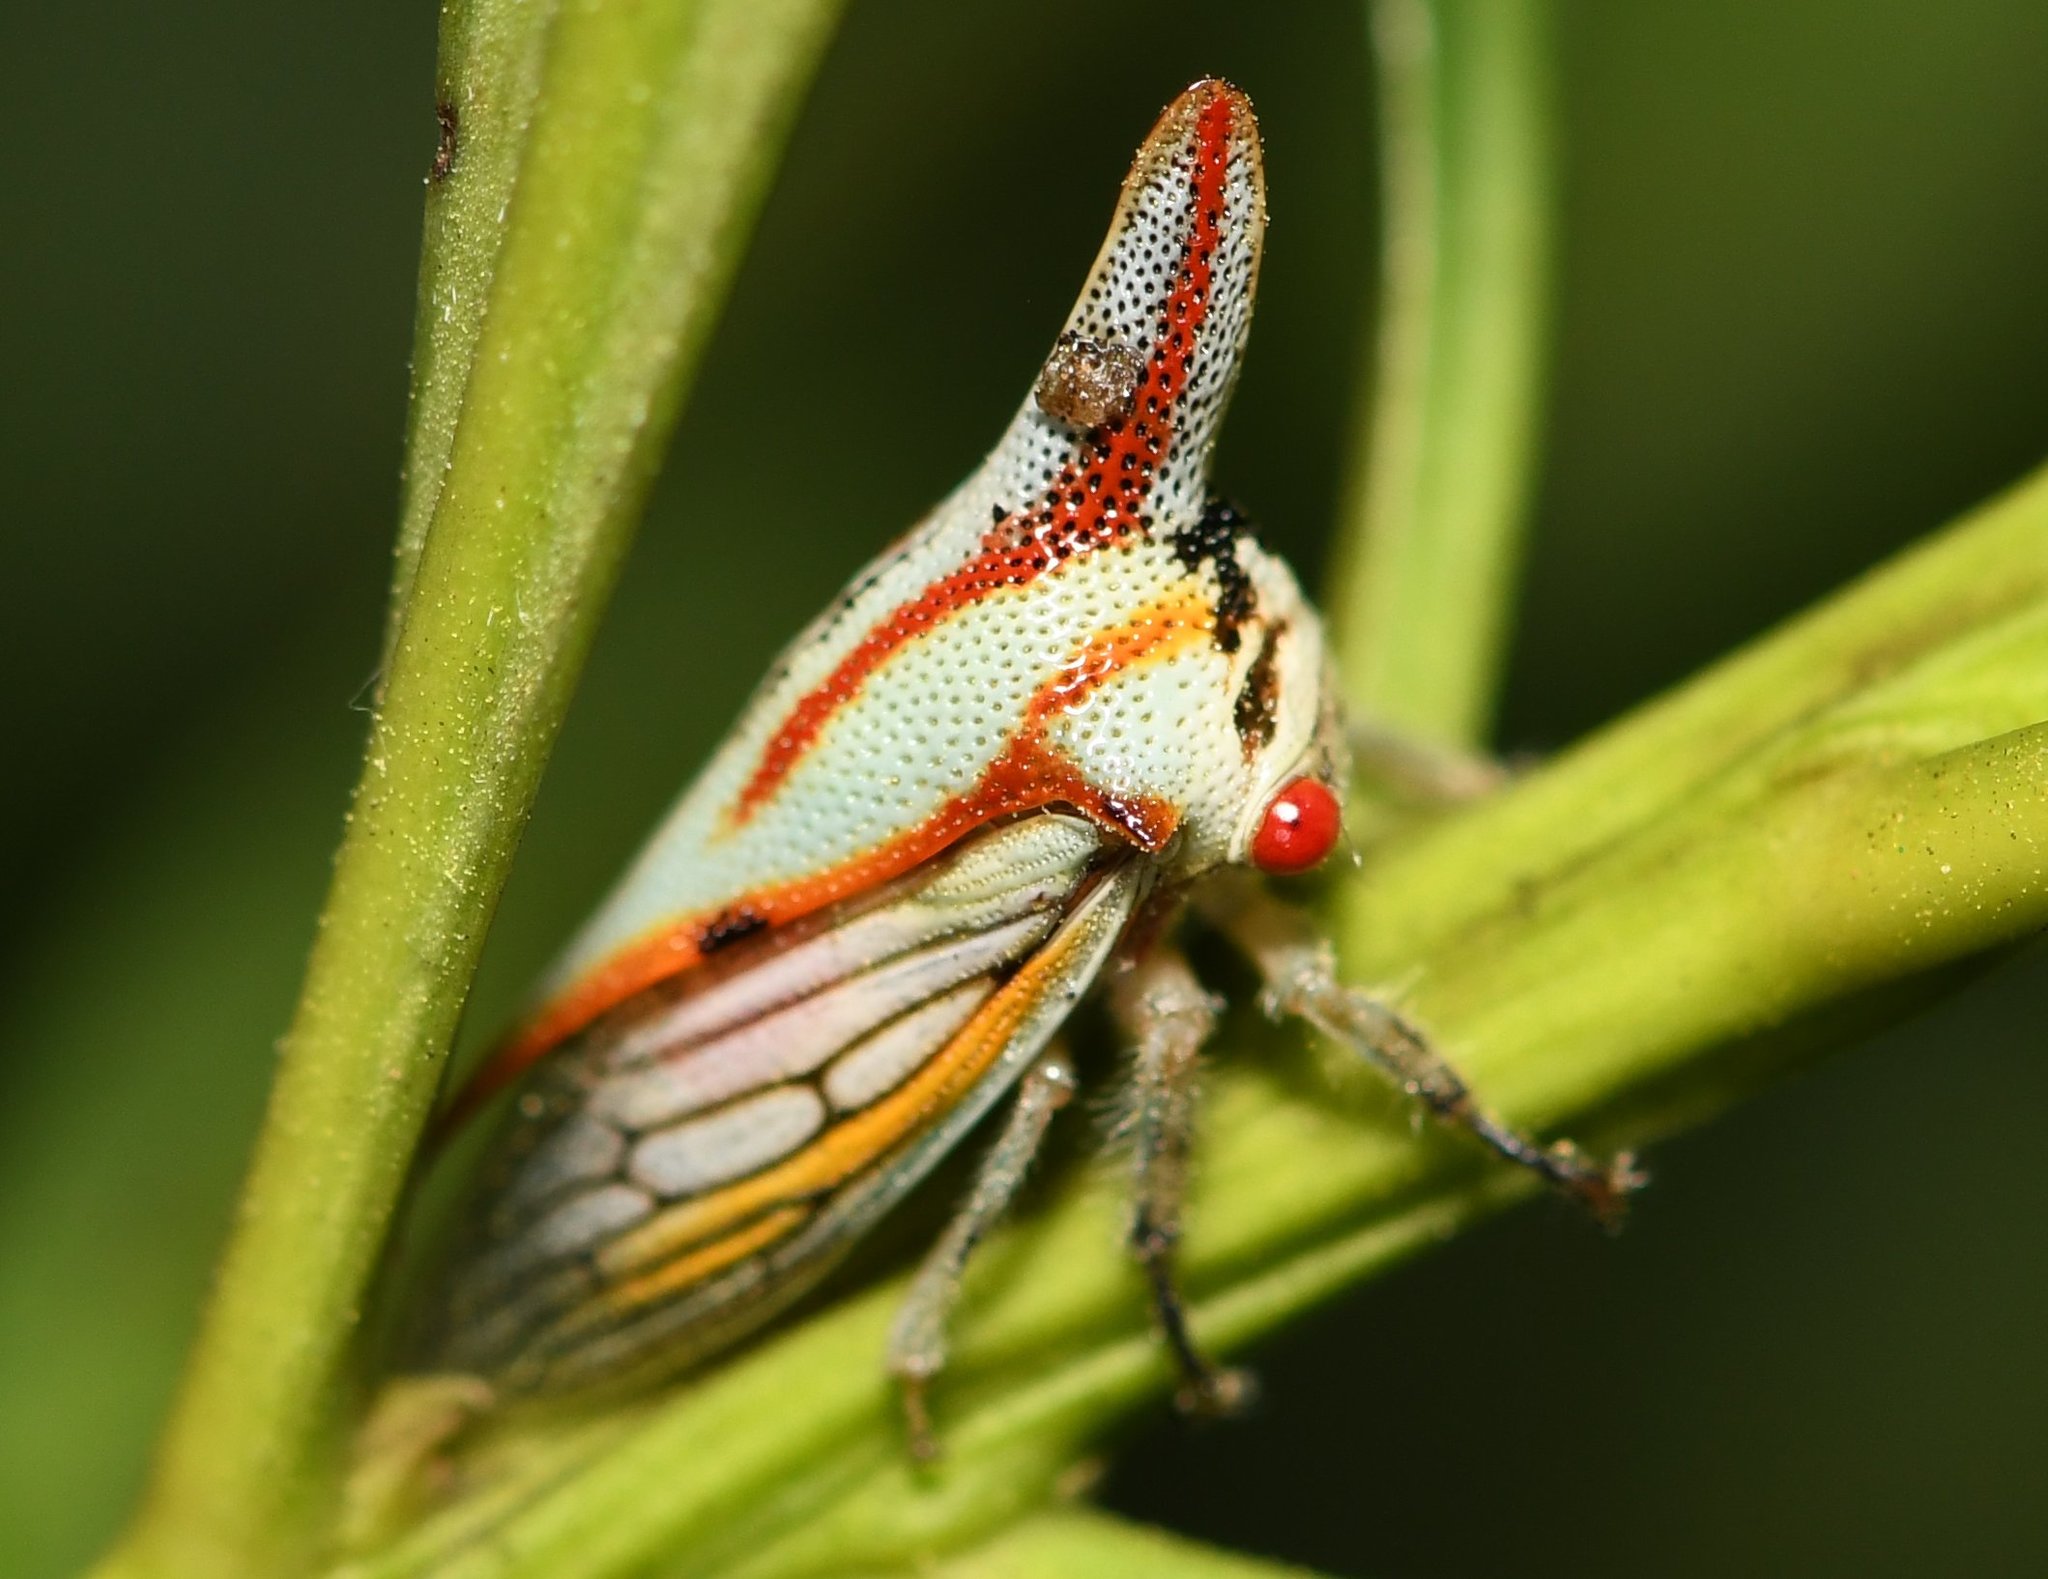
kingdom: Animalia
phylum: Arthropoda
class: Insecta
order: Hemiptera
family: Membracidae
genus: Platycotis
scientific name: Platycotis vittatus
